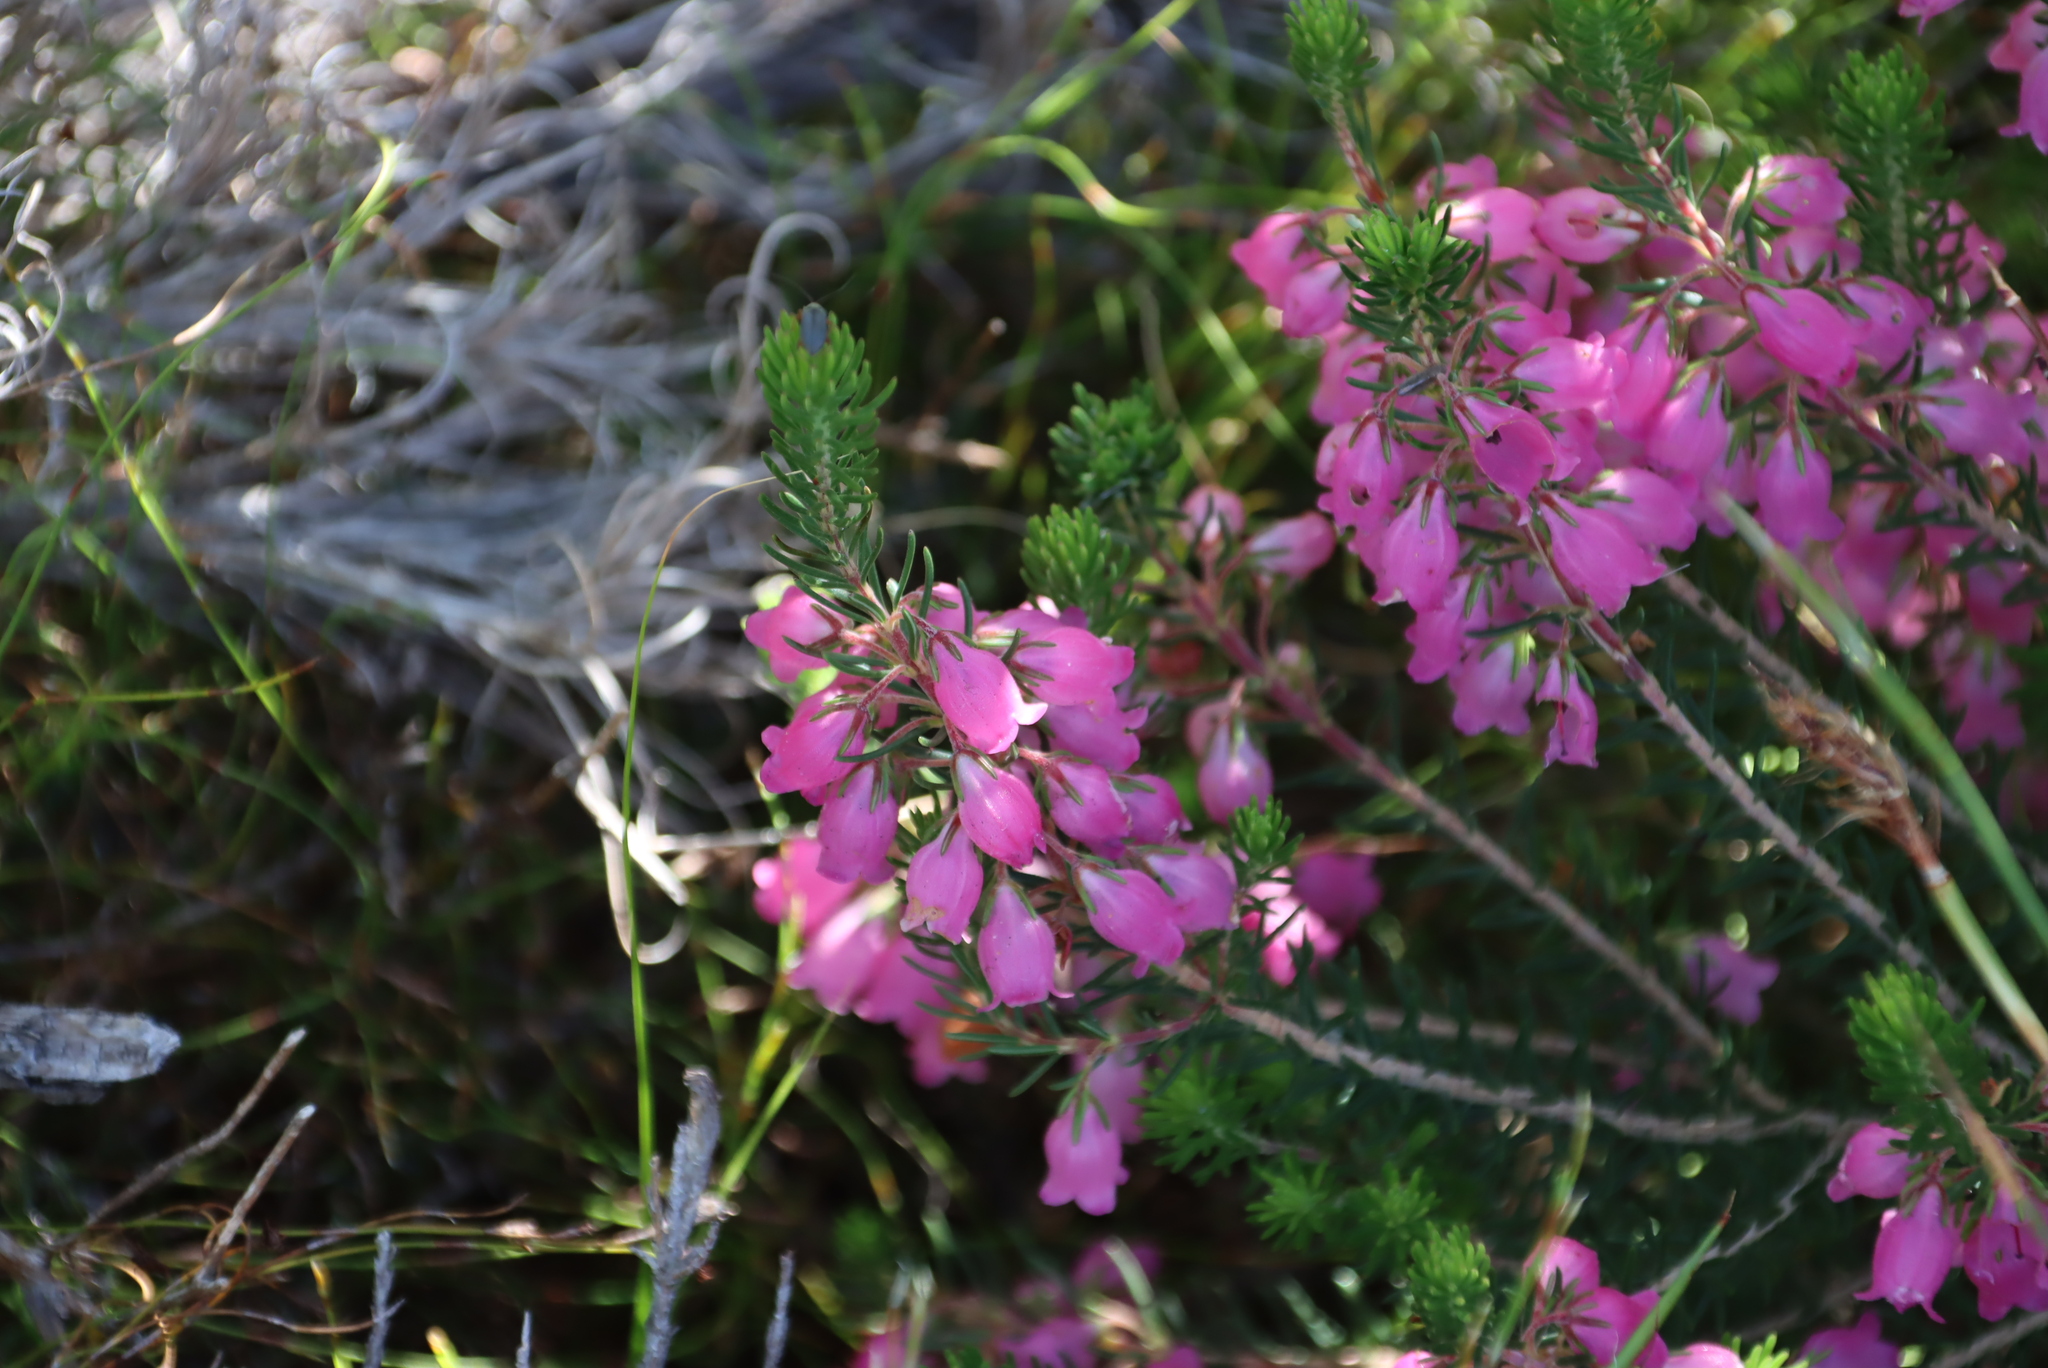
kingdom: Plantae
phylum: Tracheophyta
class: Magnoliopsida
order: Ericales
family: Ericaceae
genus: Erica
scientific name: Erica viscaria
